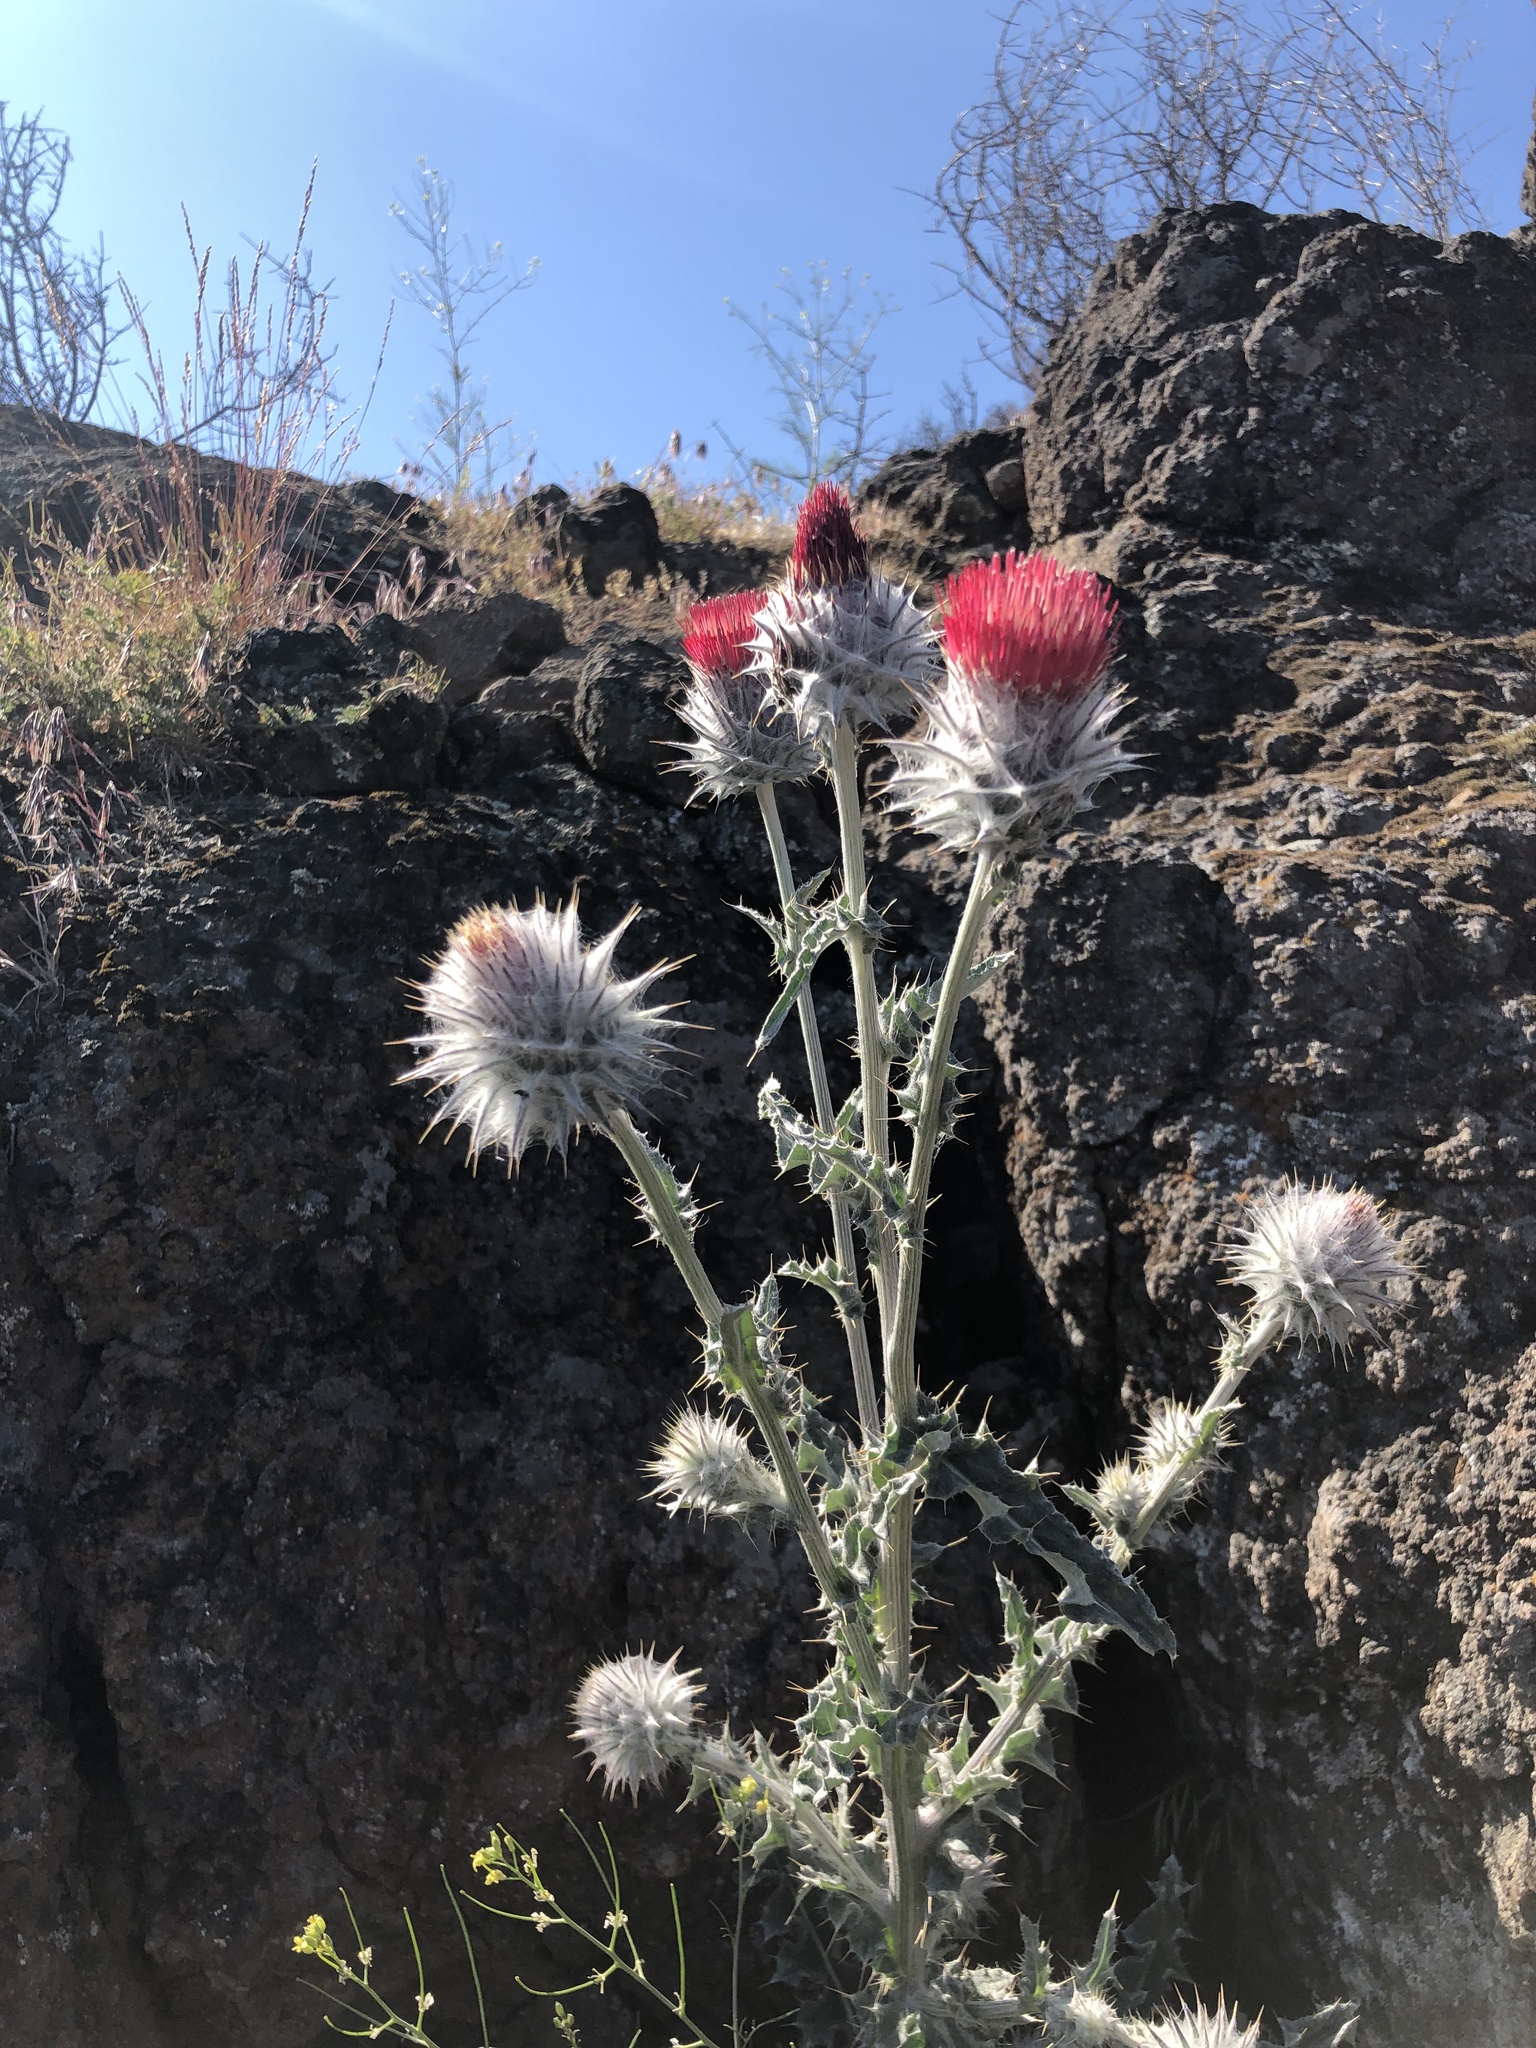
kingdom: Plantae
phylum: Tracheophyta
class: Magnoliopsida
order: Asterales
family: Asteraceae
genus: Cirsium
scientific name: Cirsium occidentale
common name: Western thistle
